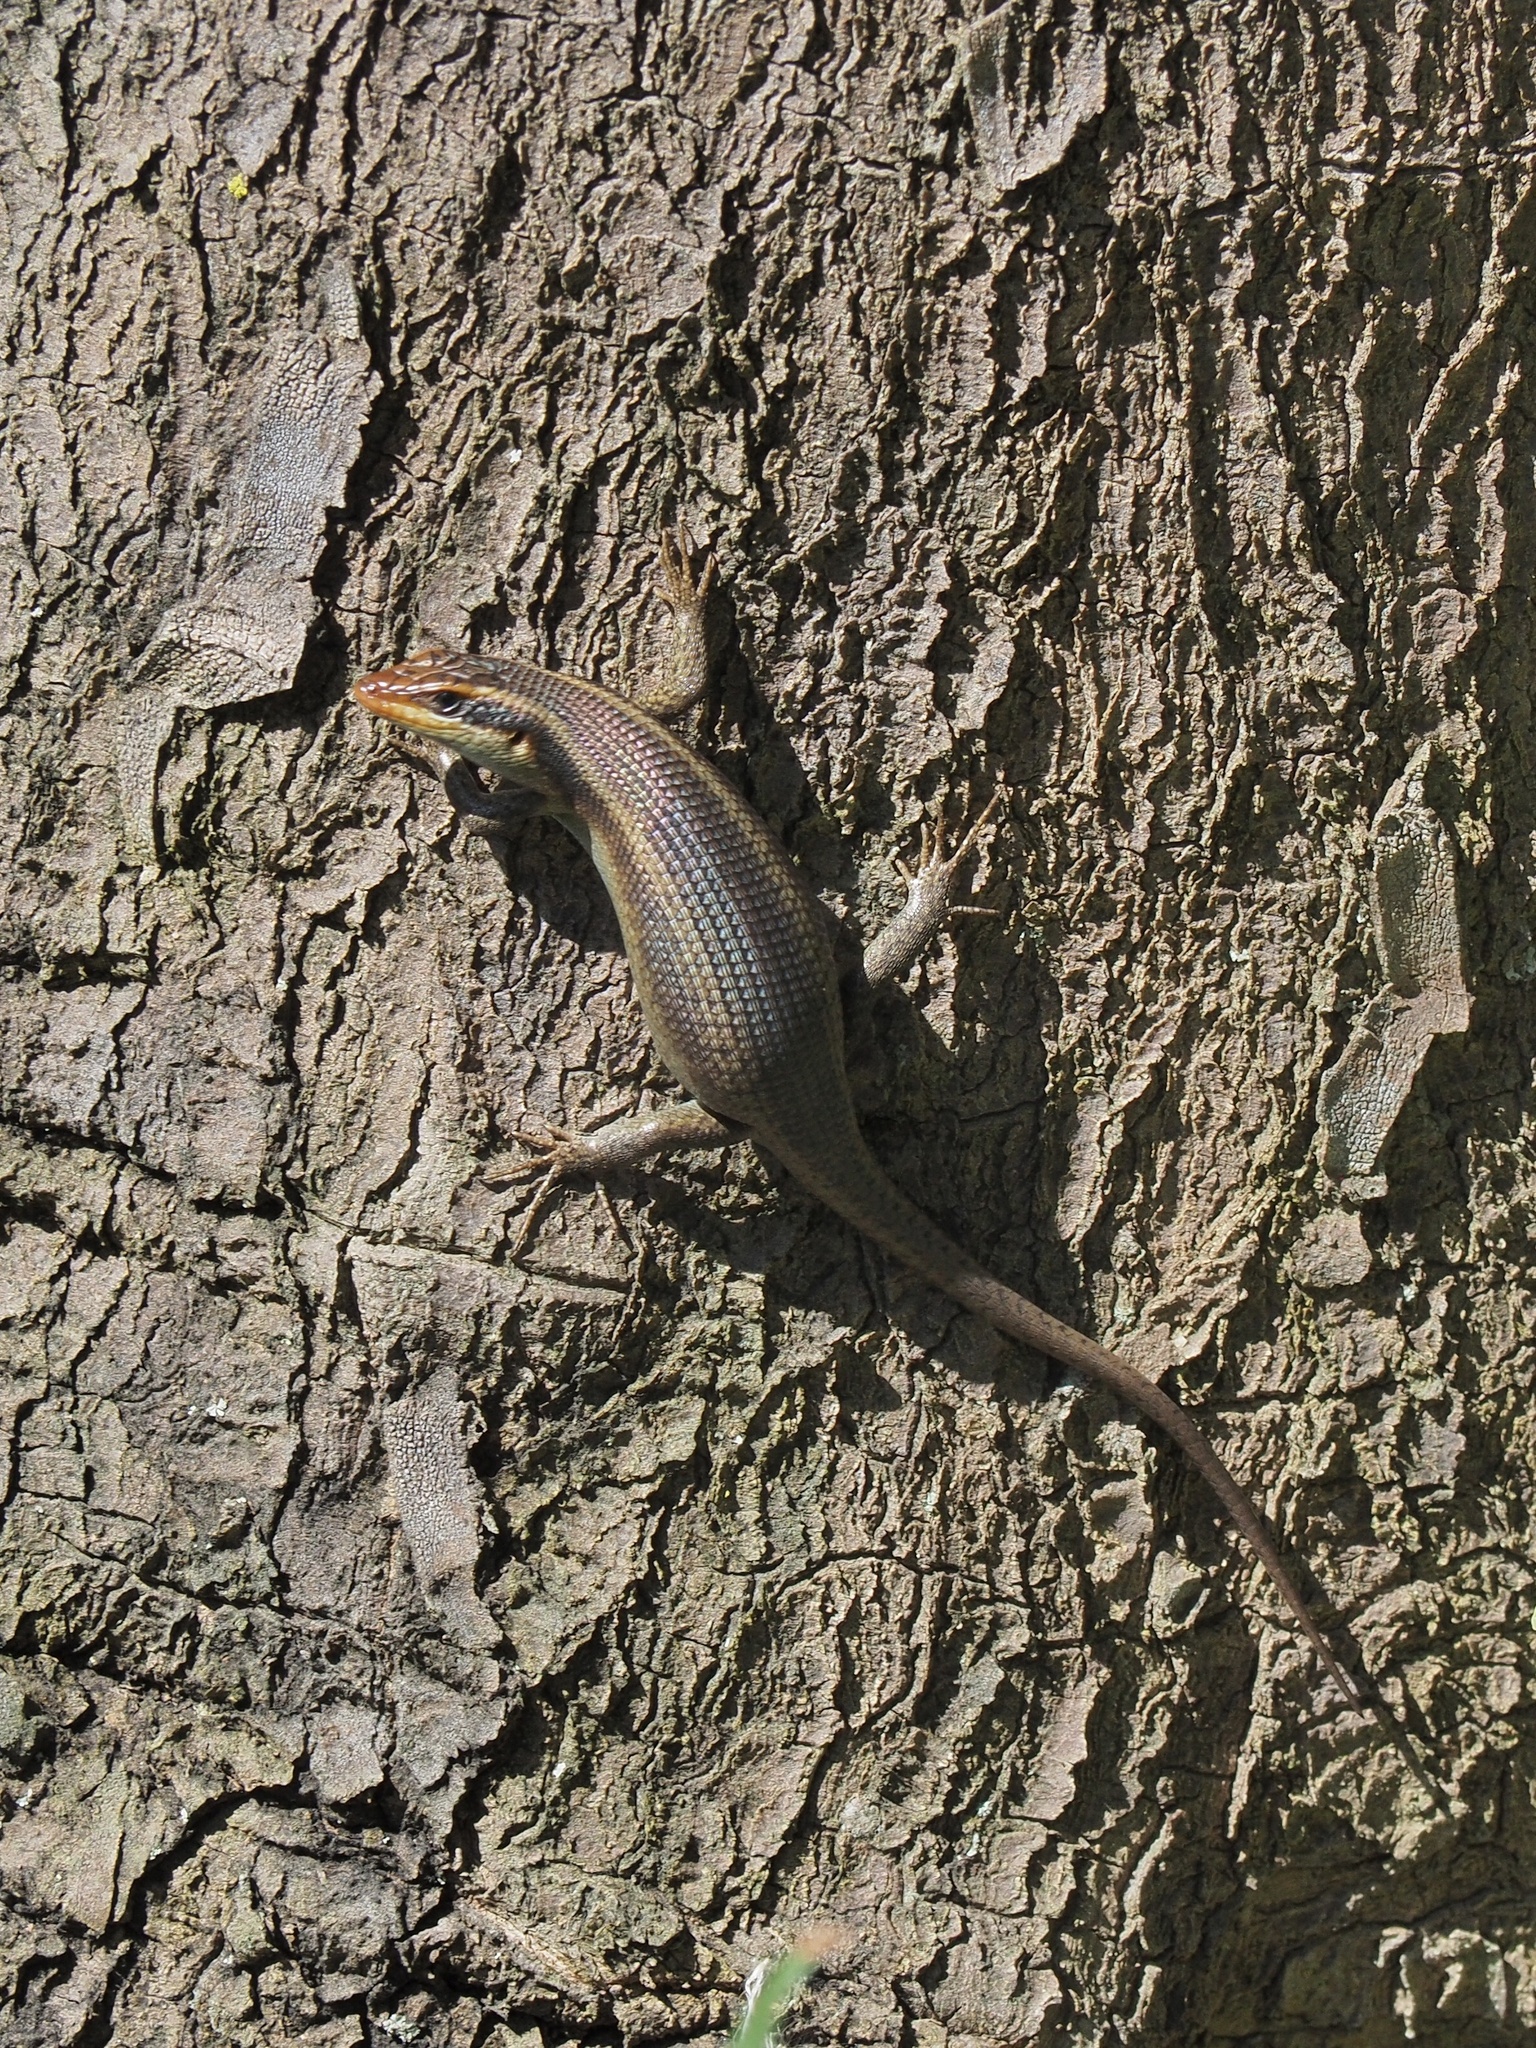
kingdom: Animalia
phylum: Chordata
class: Squamata
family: Scincidae
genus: Trachylepis
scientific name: Trachylepis wahlbergii
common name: Wahlberg’s striped skink
